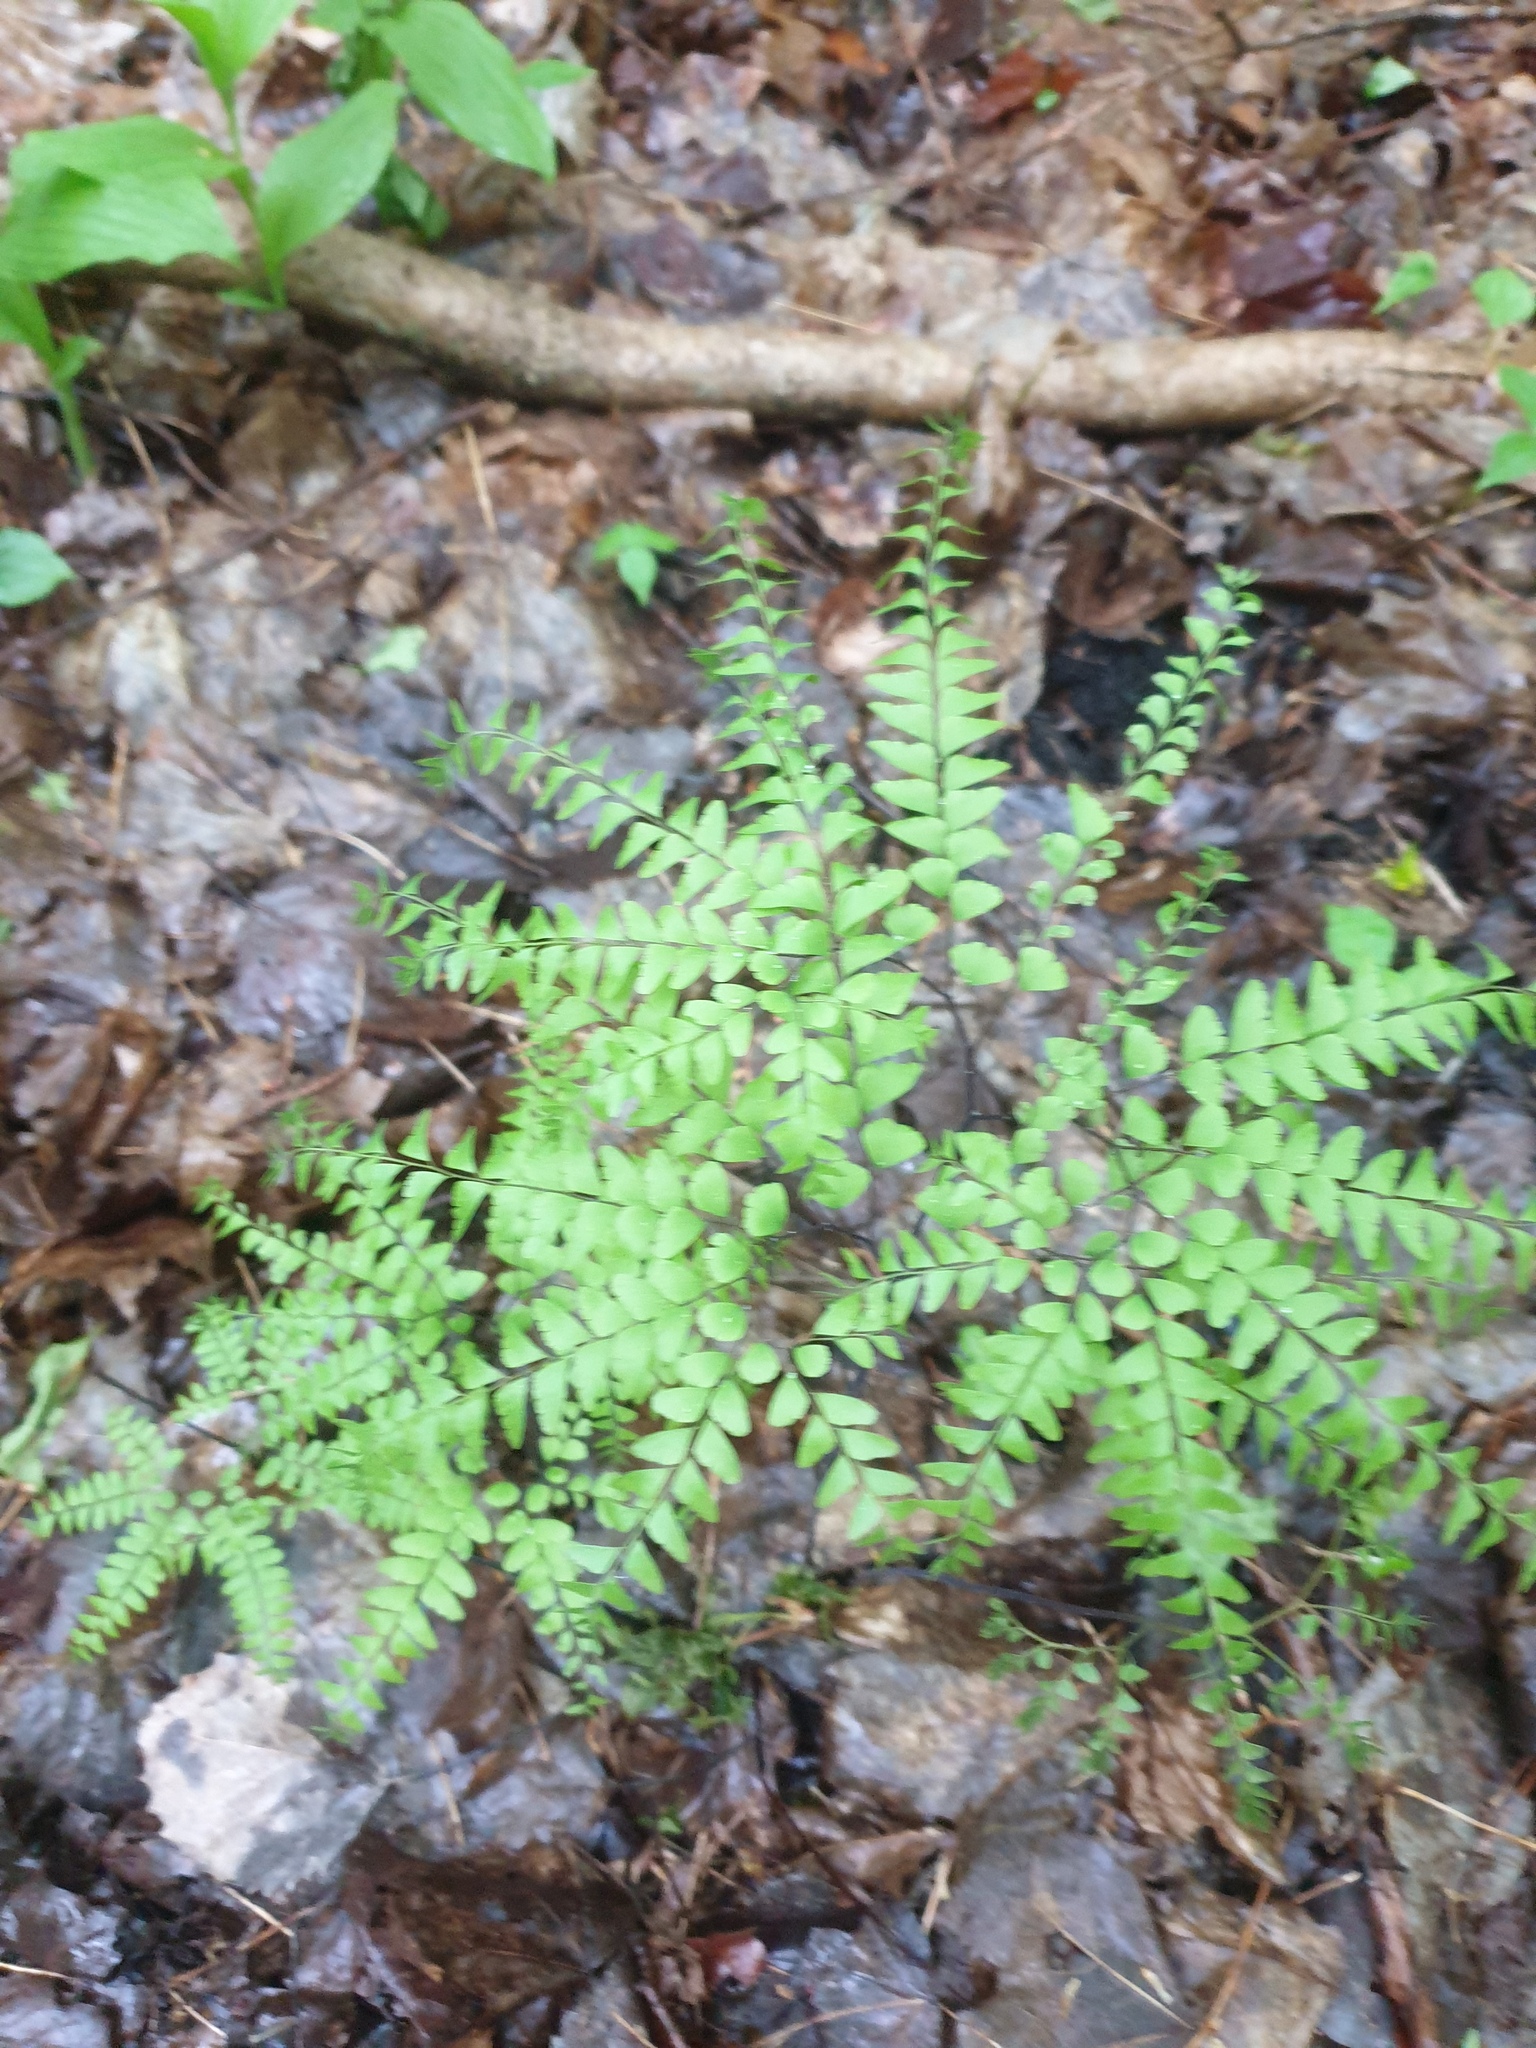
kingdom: Plantae
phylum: Tracheophyta
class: Polypodiopsida
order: Polypodiales
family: Pteridaceae
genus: Adiantum
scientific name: Adiantum pedatum
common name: Five-finger fern
